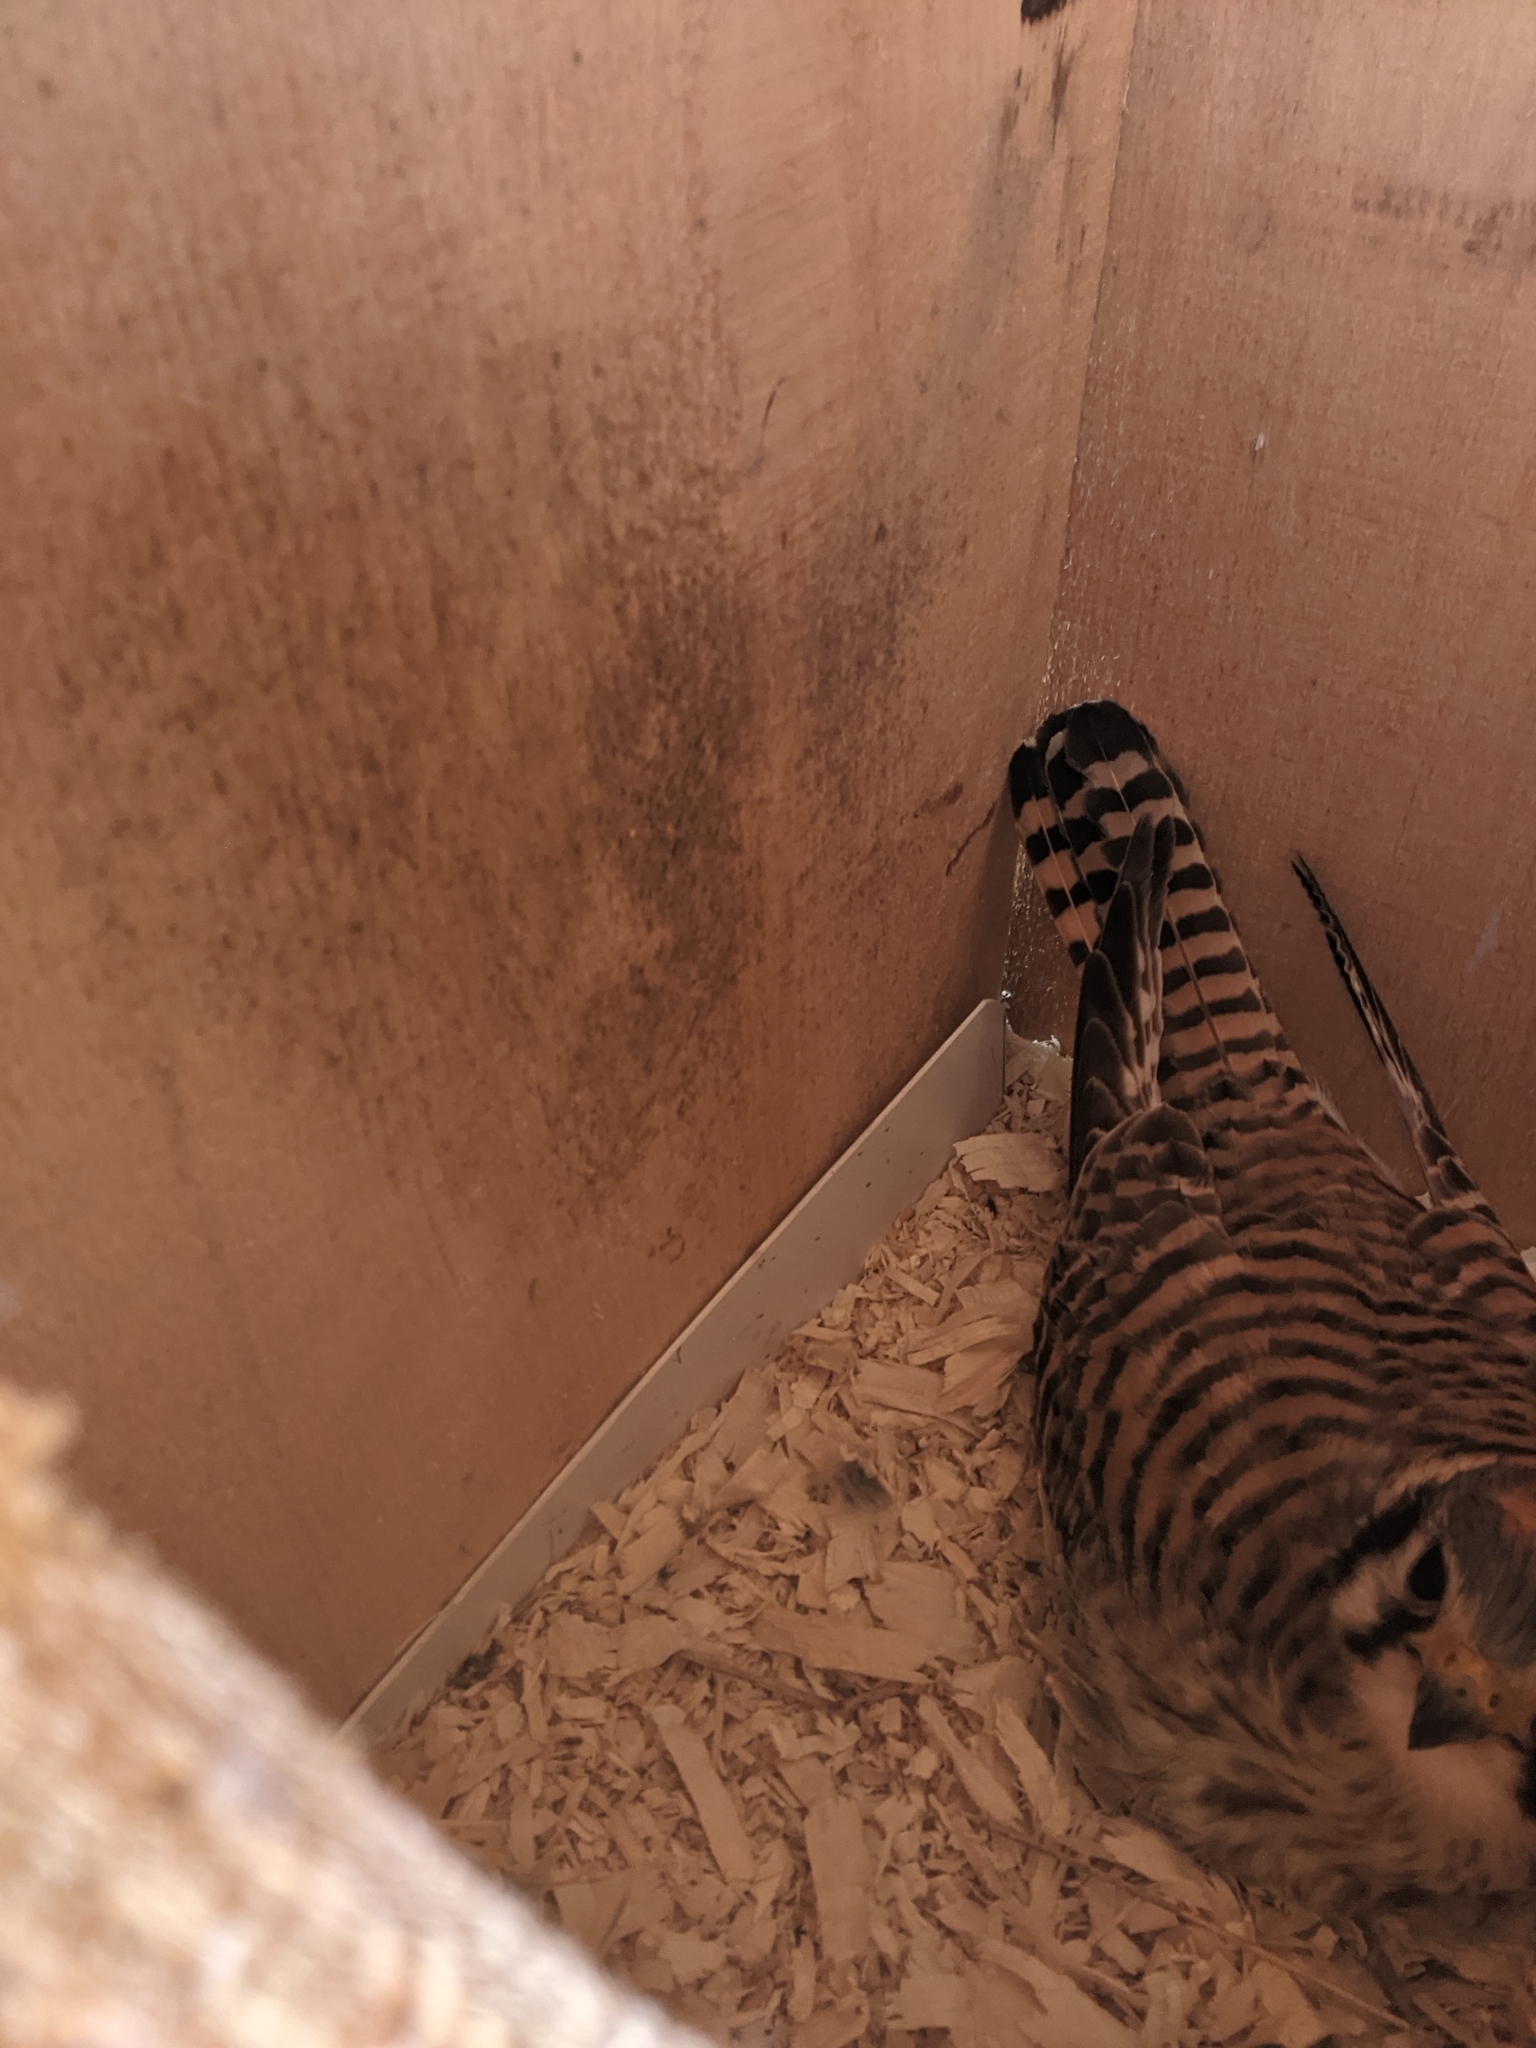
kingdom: Animalia
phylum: Chordata
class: Aves
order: Falconiformes
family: Falconidae
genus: Falco
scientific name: Falco sparverius
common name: American kestrel
